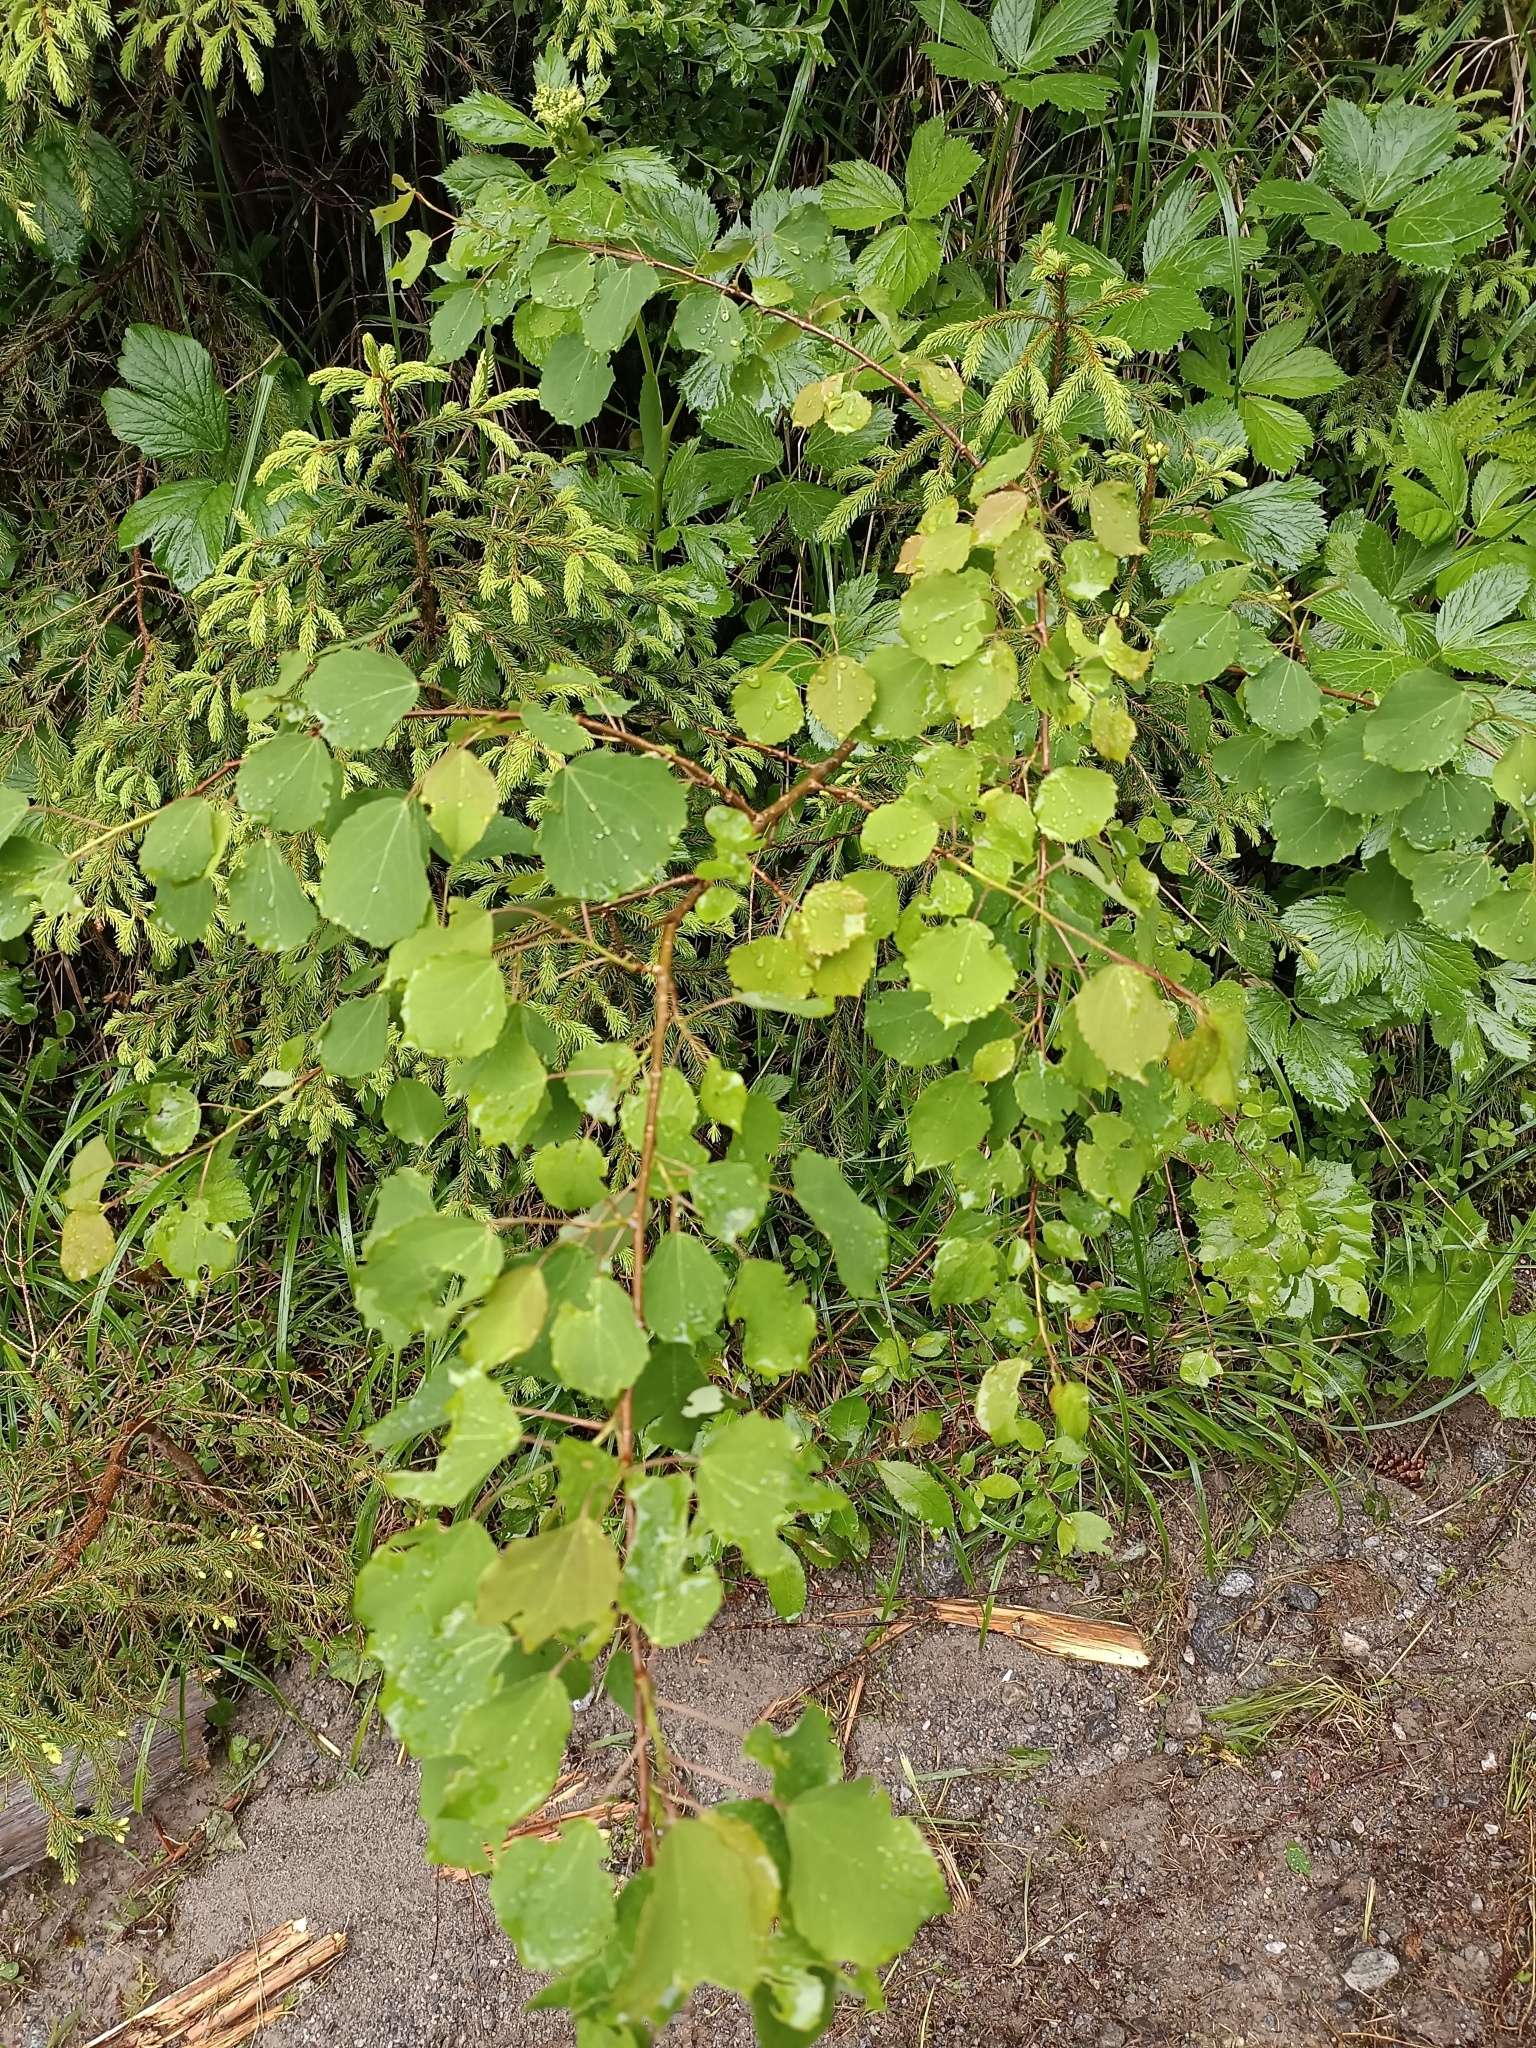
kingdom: Plantae
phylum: Tracheophyta
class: Magnoliopsida
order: Malpighiales
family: Salicaceae
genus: Populus
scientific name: Populus tremula
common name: European aspen
